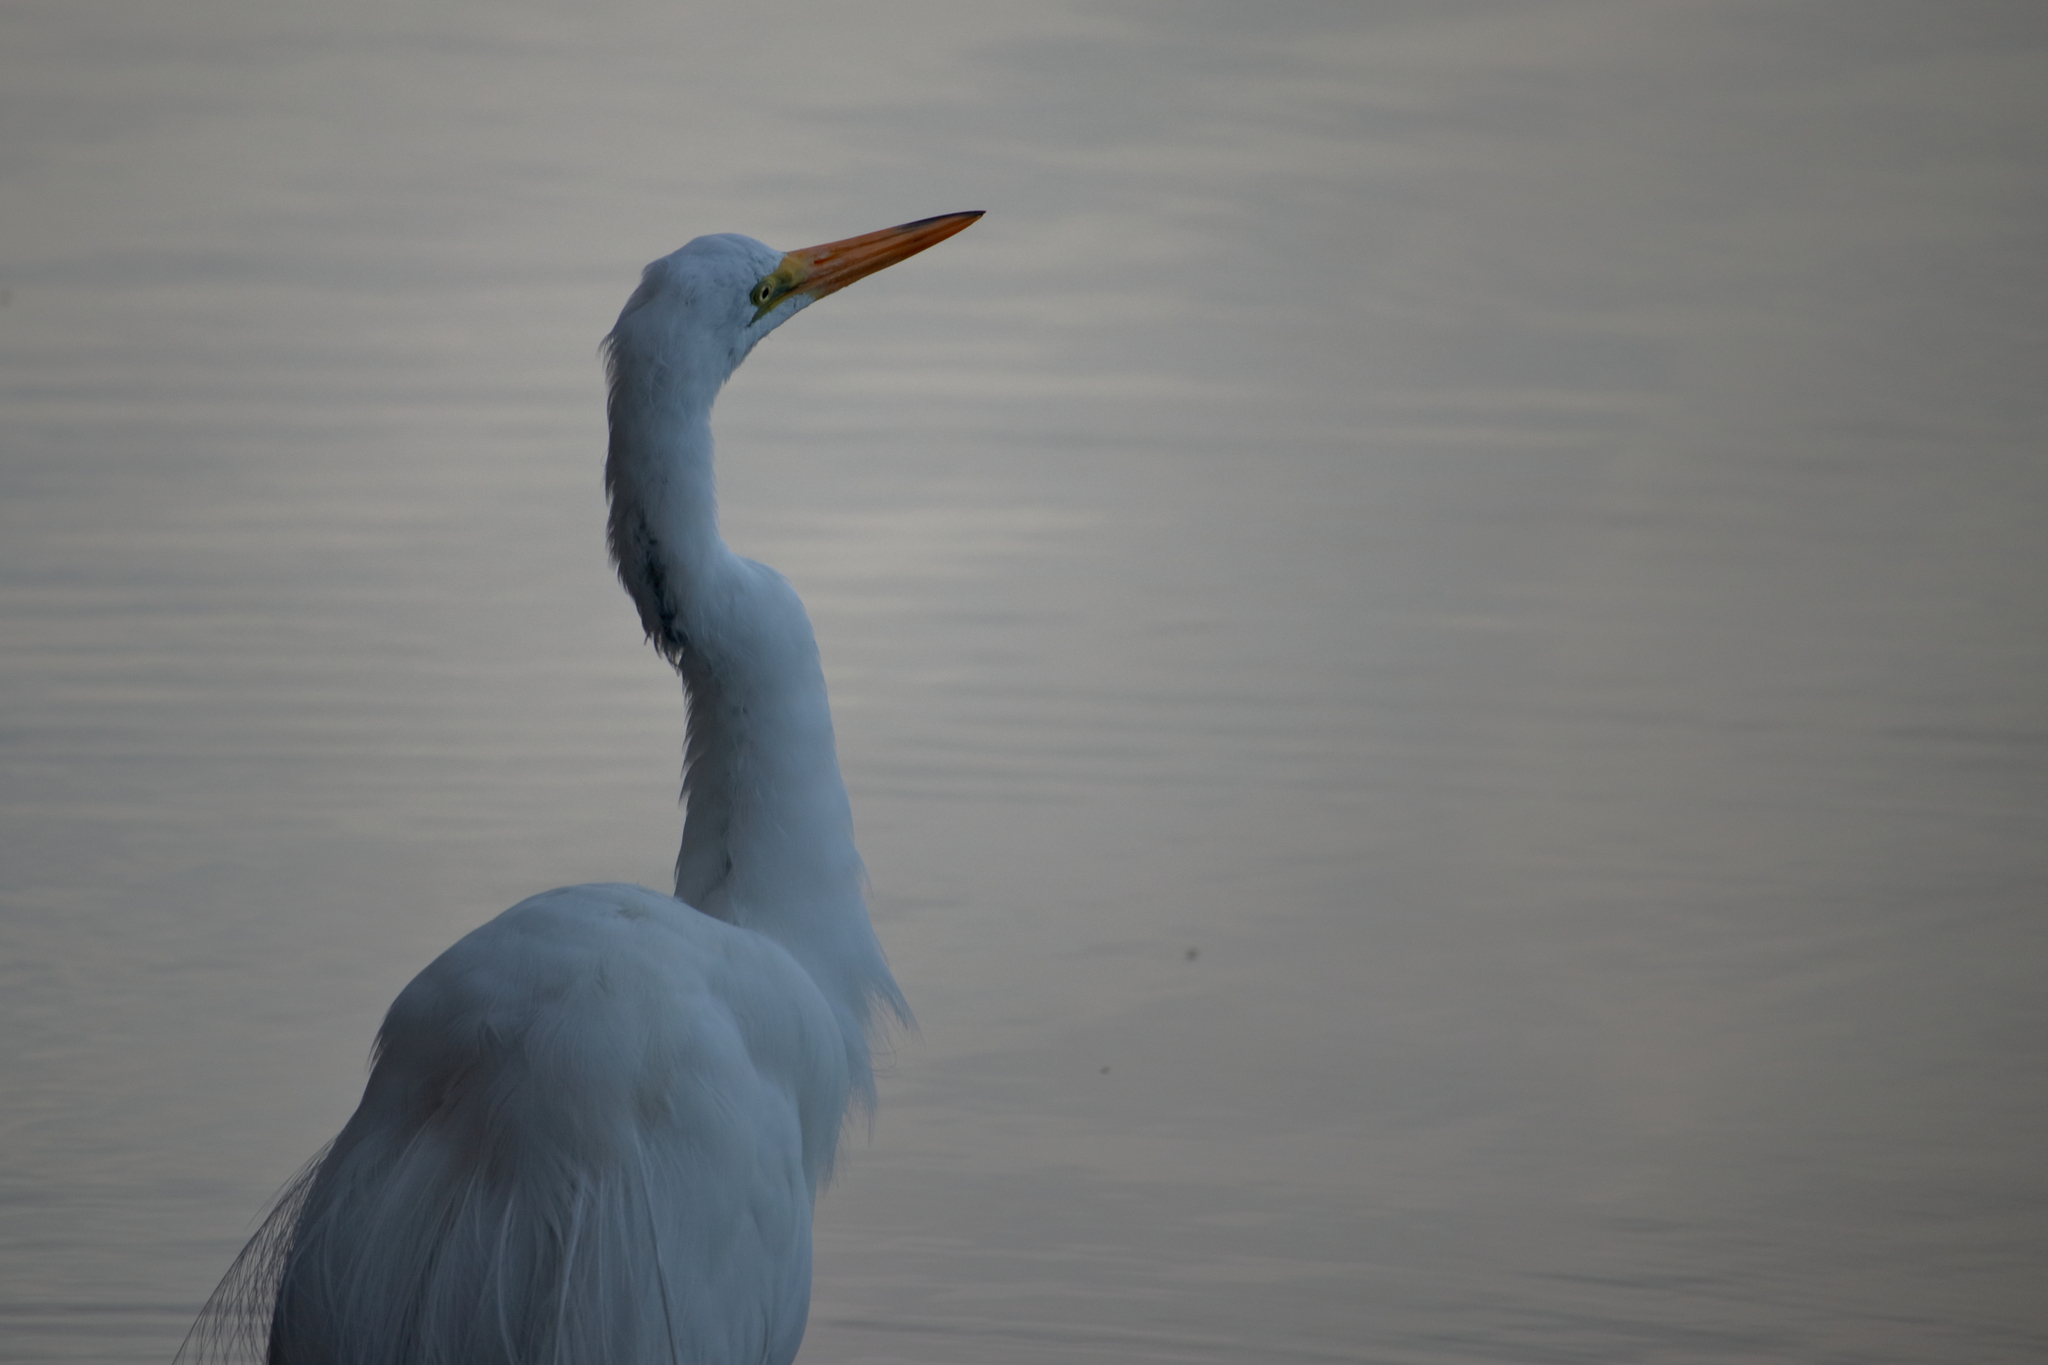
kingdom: Animalia
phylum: Chordata
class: Aves
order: Pelecaniformes
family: Ardeidae
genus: Ardea
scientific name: Ardea alba
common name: Great egret
